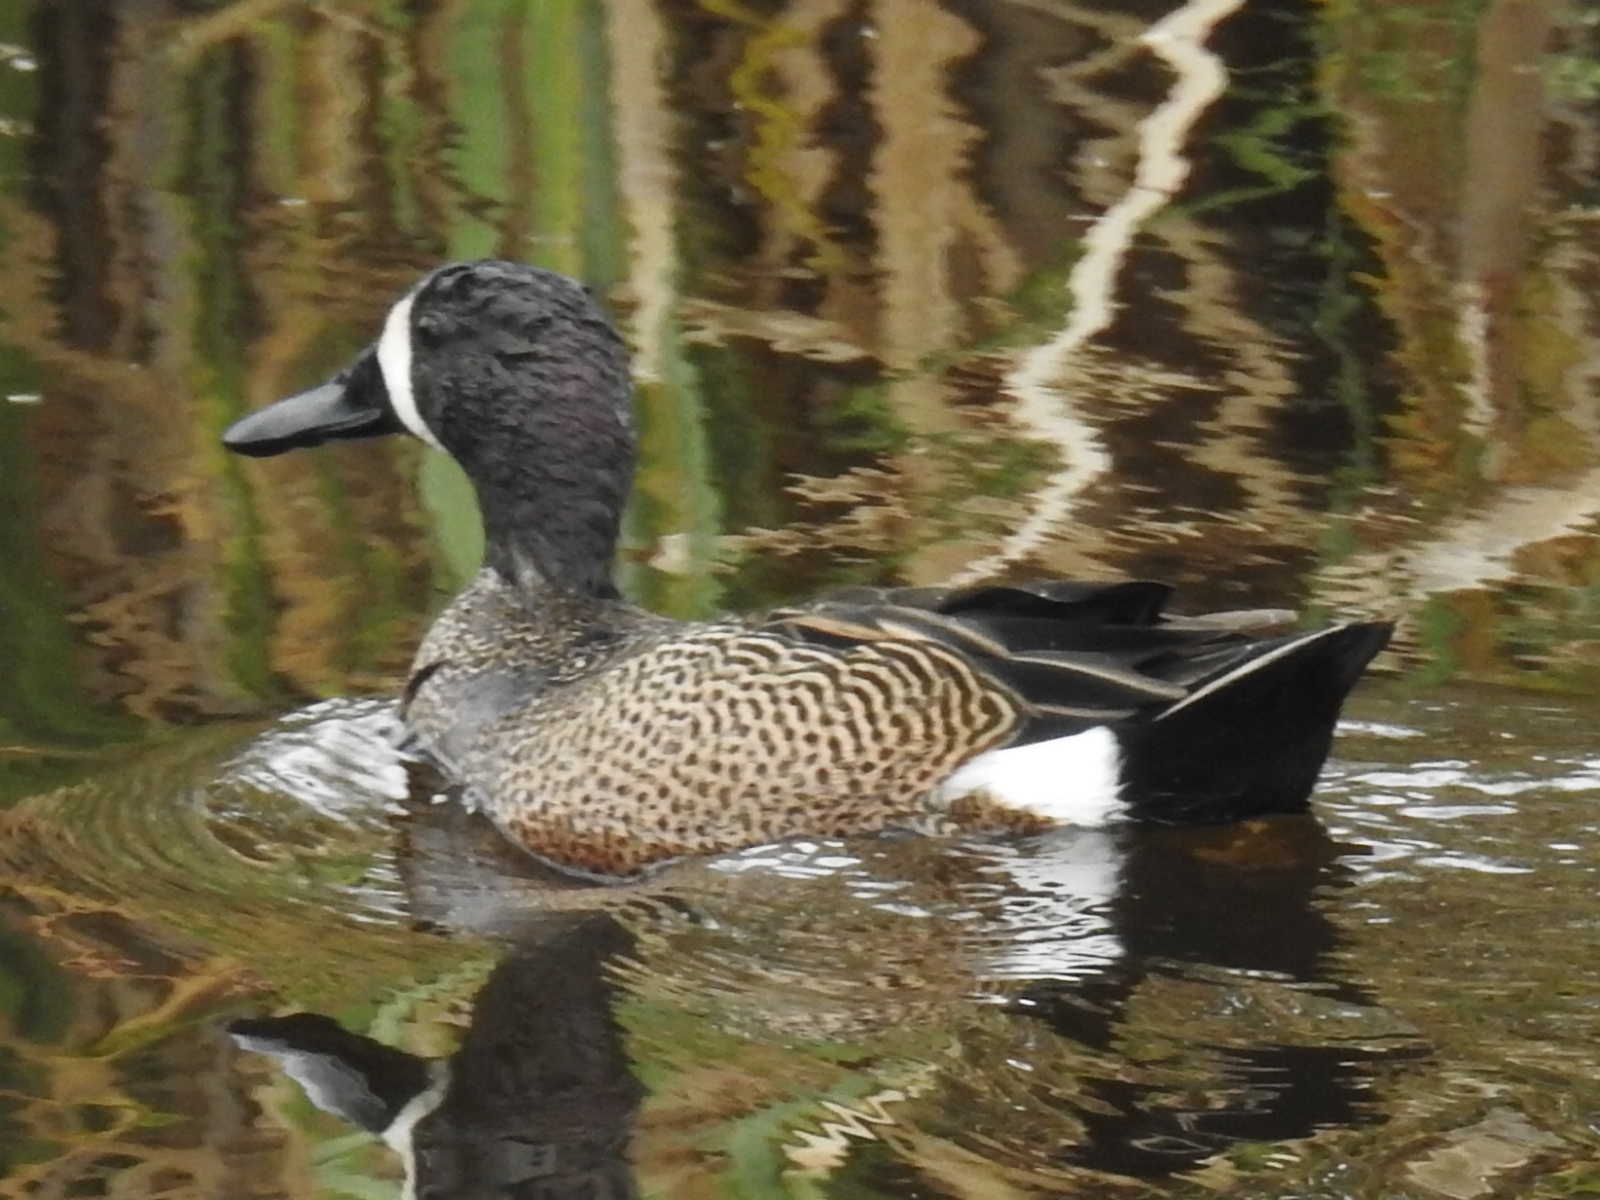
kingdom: Animalia
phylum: Chordata
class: Aves
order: Anseriformes
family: Anatidae
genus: Spatula
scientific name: Spatula discors
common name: Blue-winged teal
